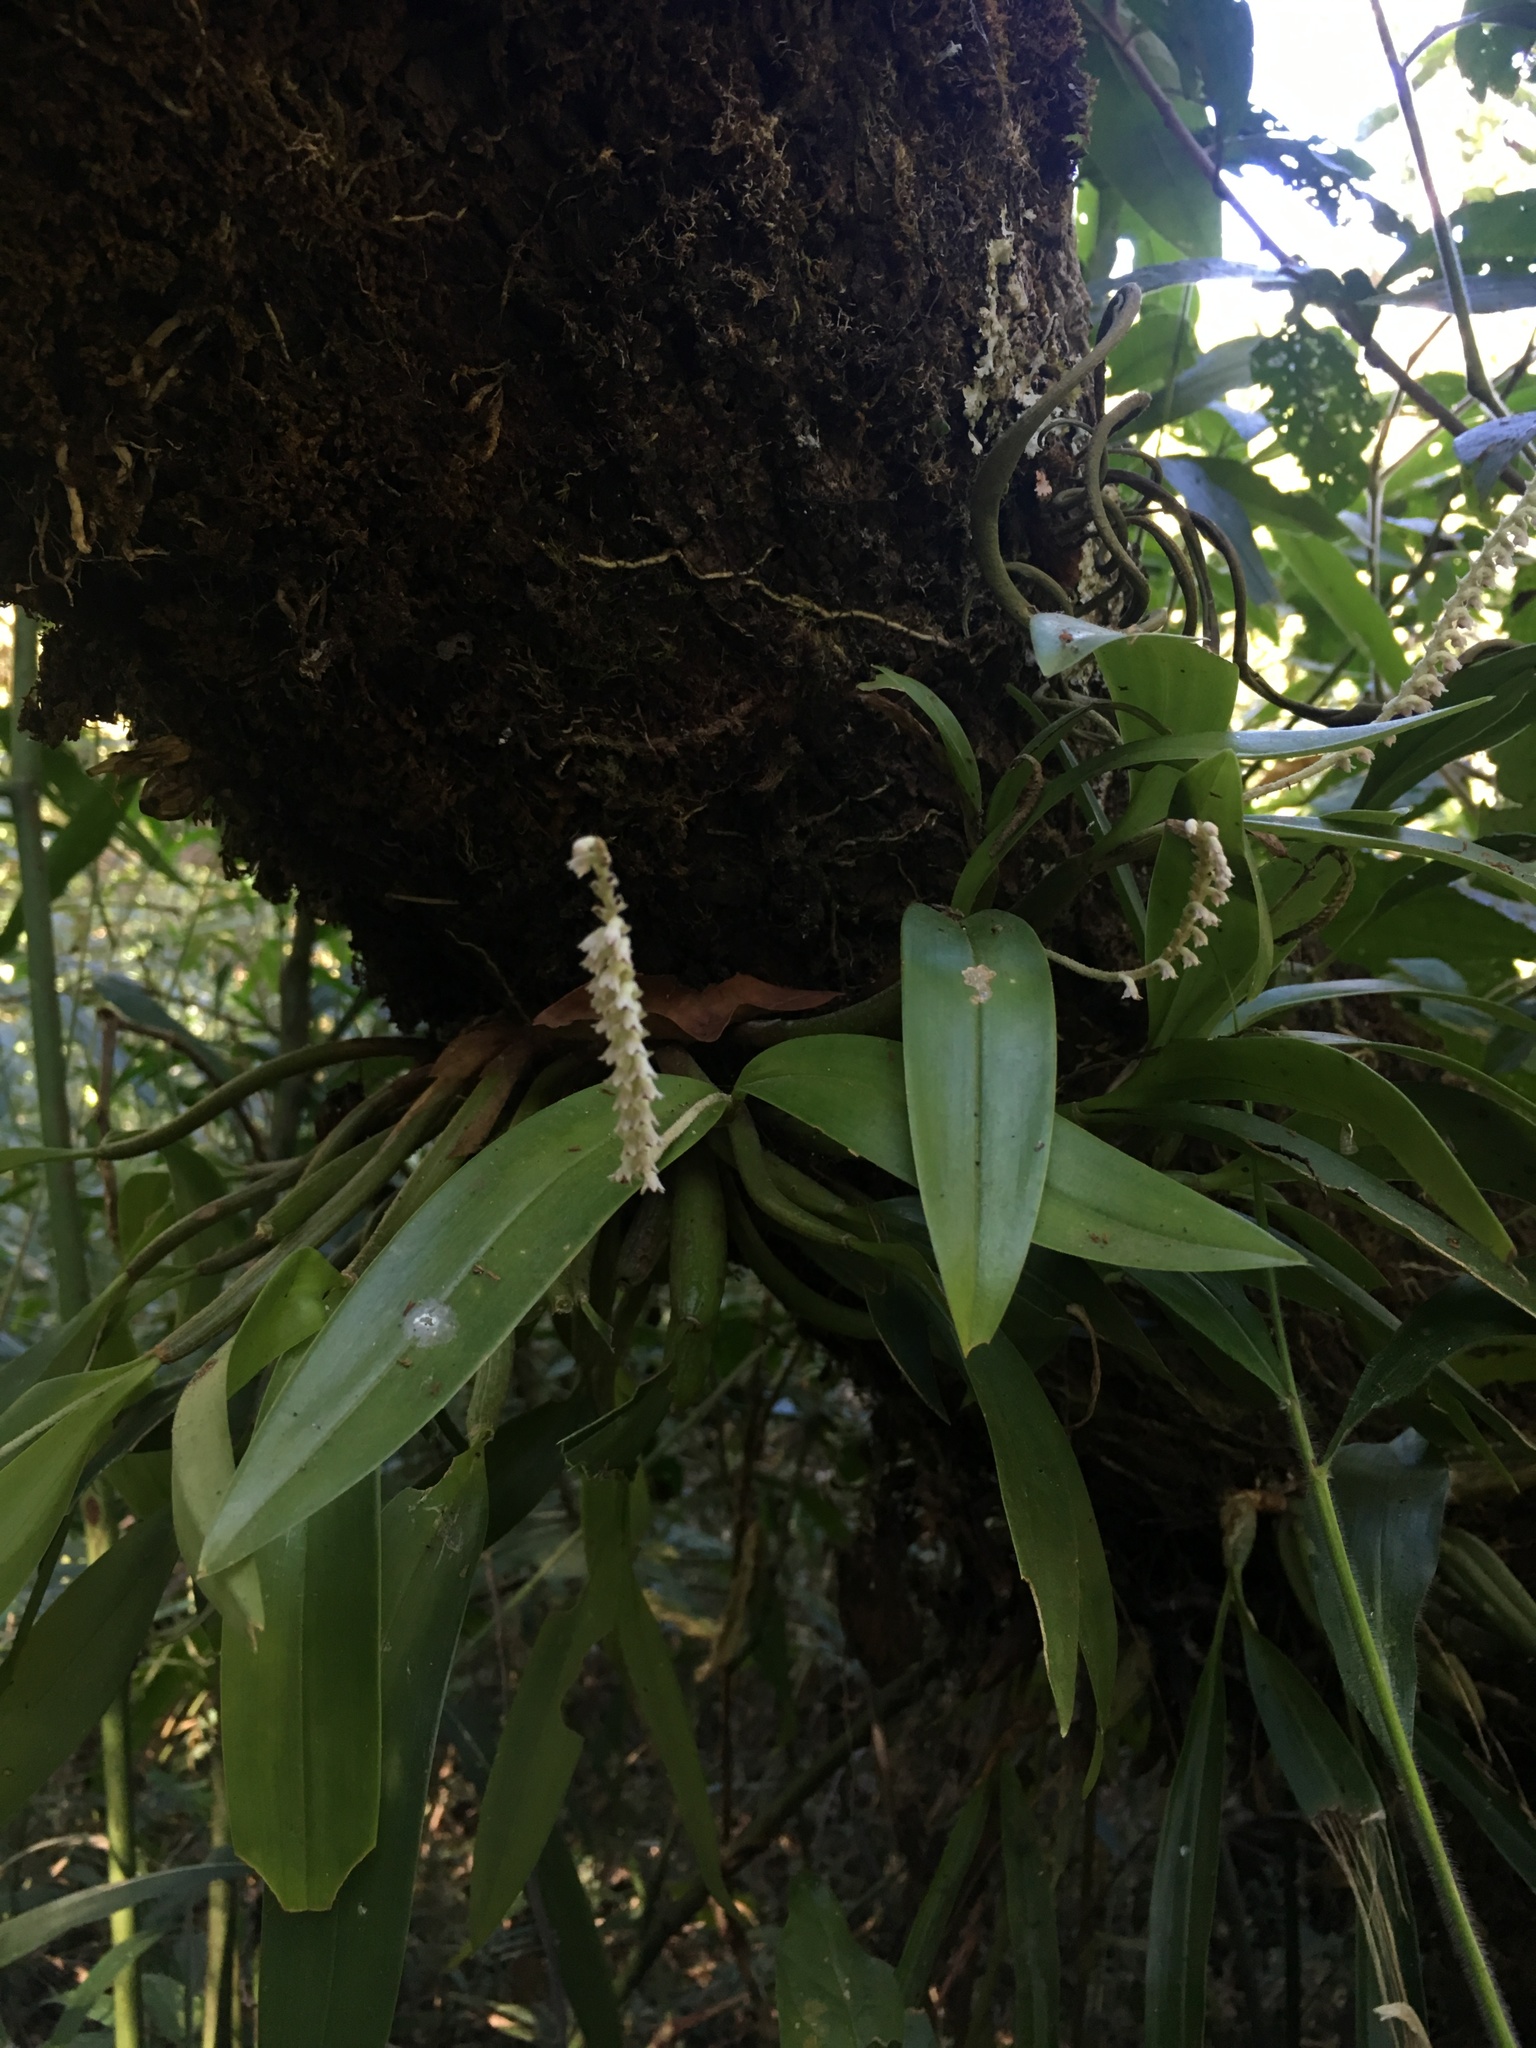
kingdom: Plantae
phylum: Tracheophyta
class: Liliopsida
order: Asparagales
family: Orchidaceae
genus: Cryptochilus
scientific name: Cryptochilus siamensis
